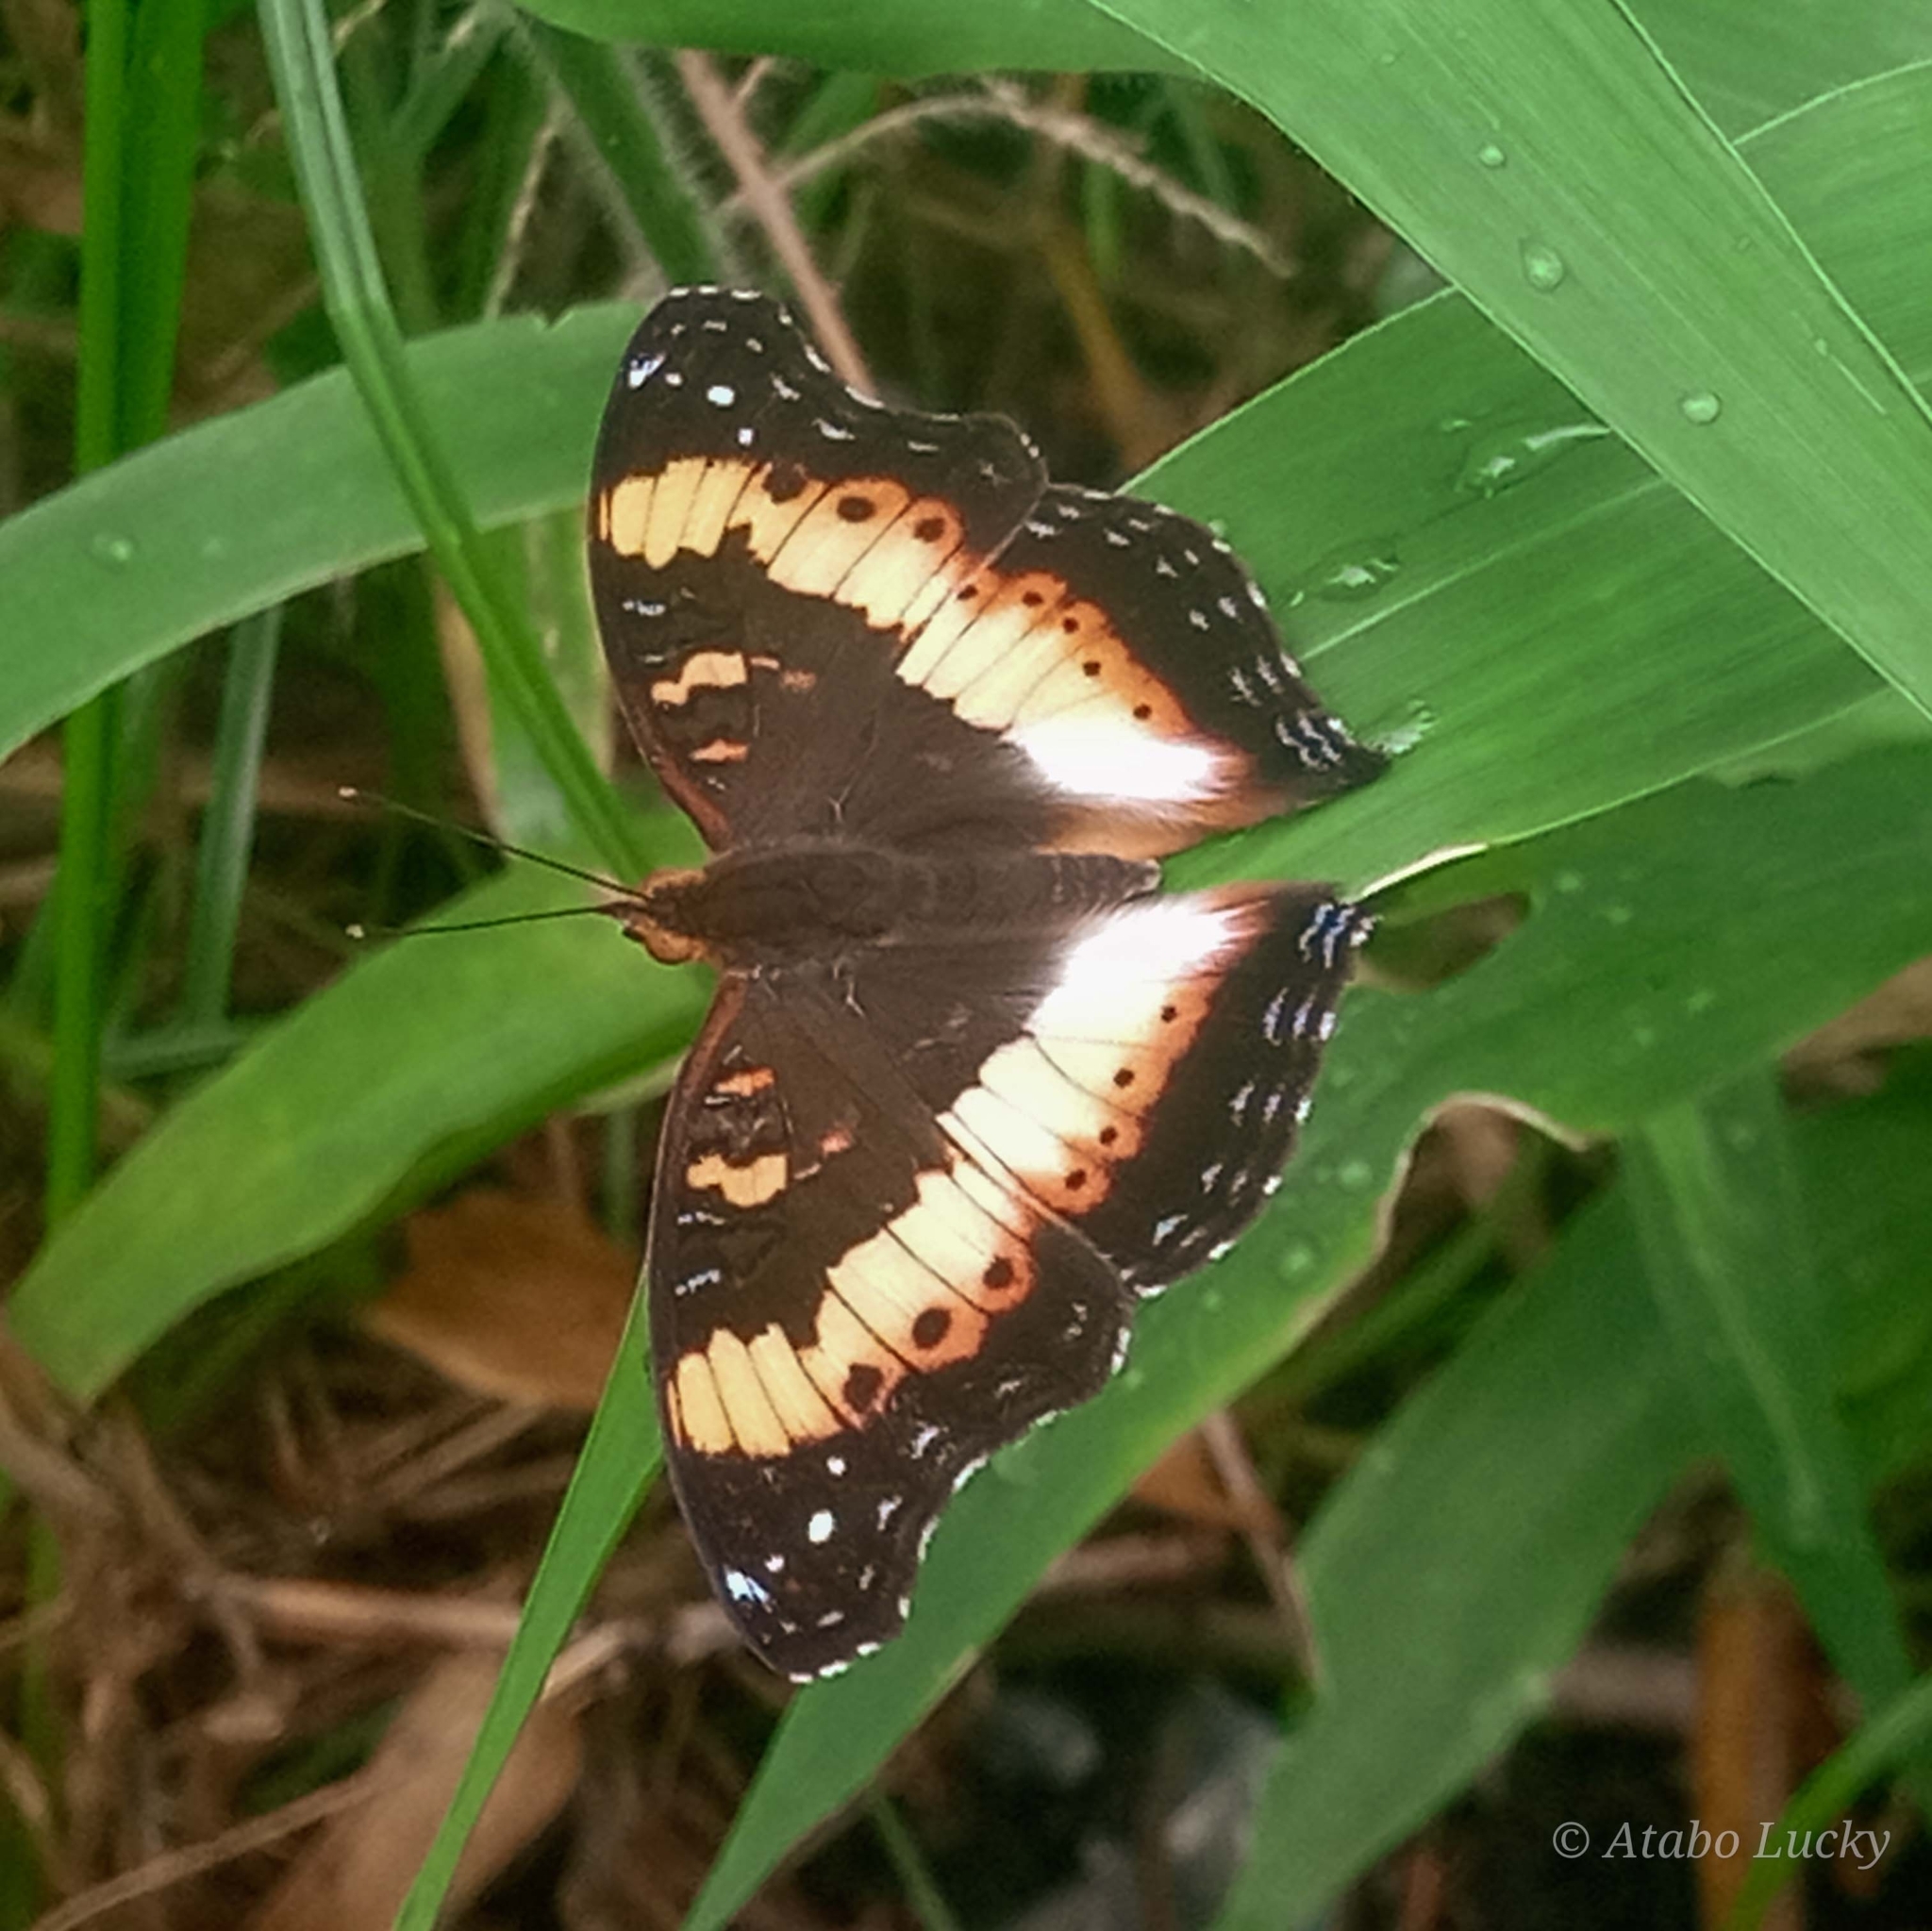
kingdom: Animalia
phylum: Arthropoda
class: Insecta
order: Lepidoptera
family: Nymphalidae
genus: Precis
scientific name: Precis pelarga
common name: Fashion commodore
